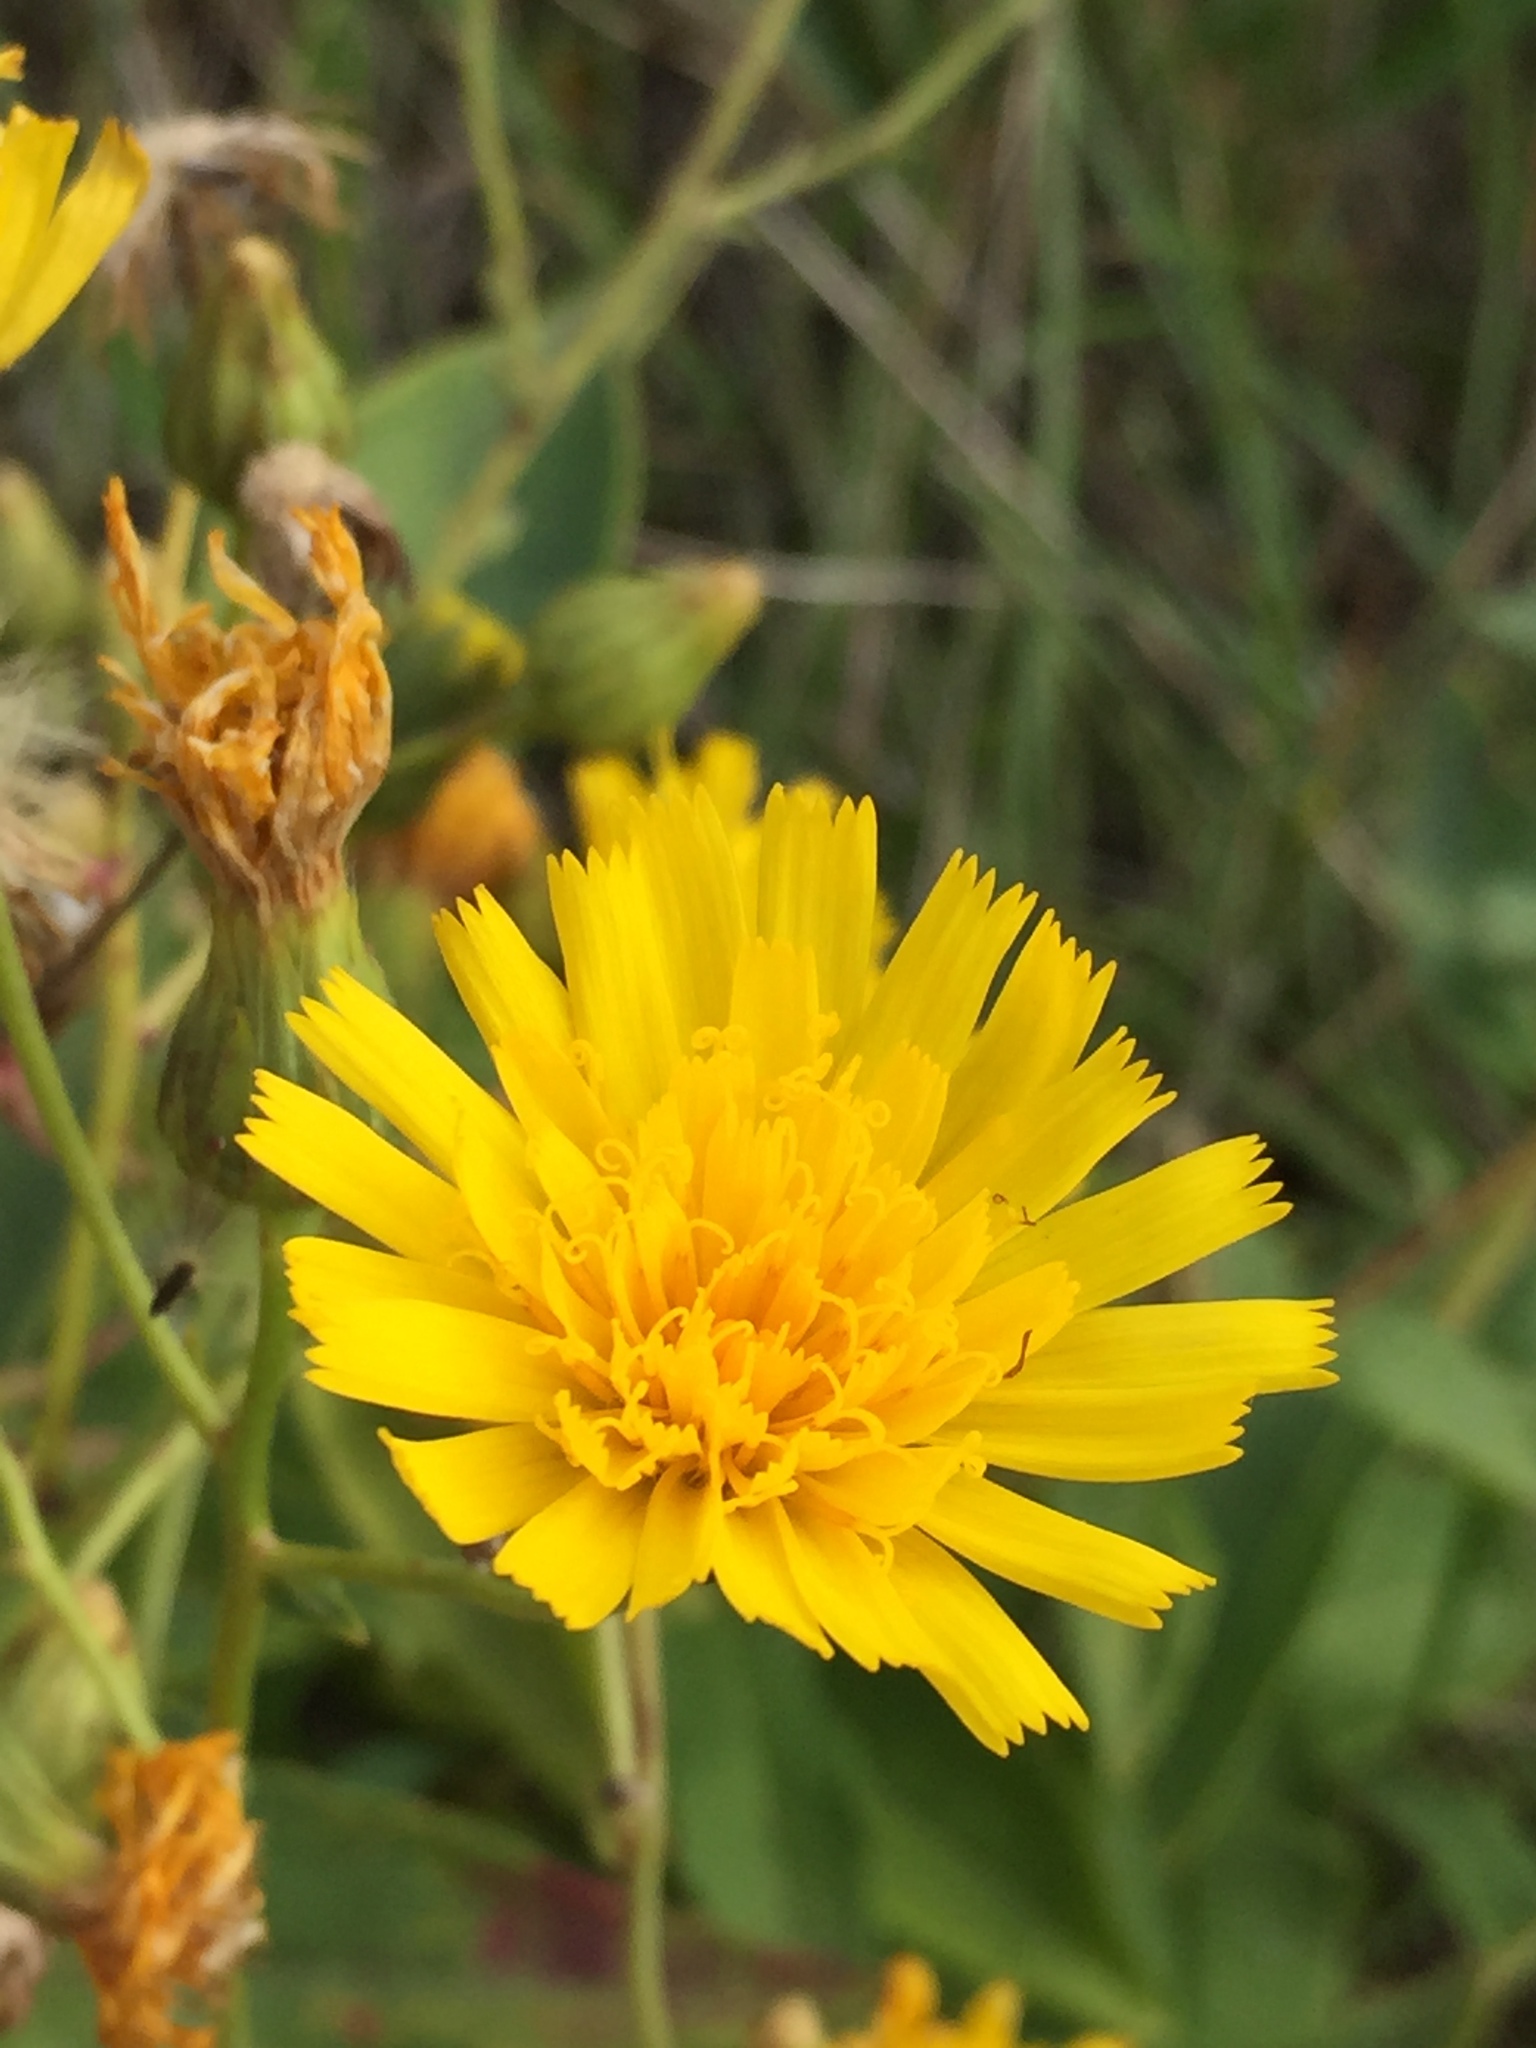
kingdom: Plantae
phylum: Tracheophyta
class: Magnoliopsida
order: Asterales
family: Asteraceae
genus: Hieracium
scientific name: Hieracium umbellatum
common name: Northern hawkweed
